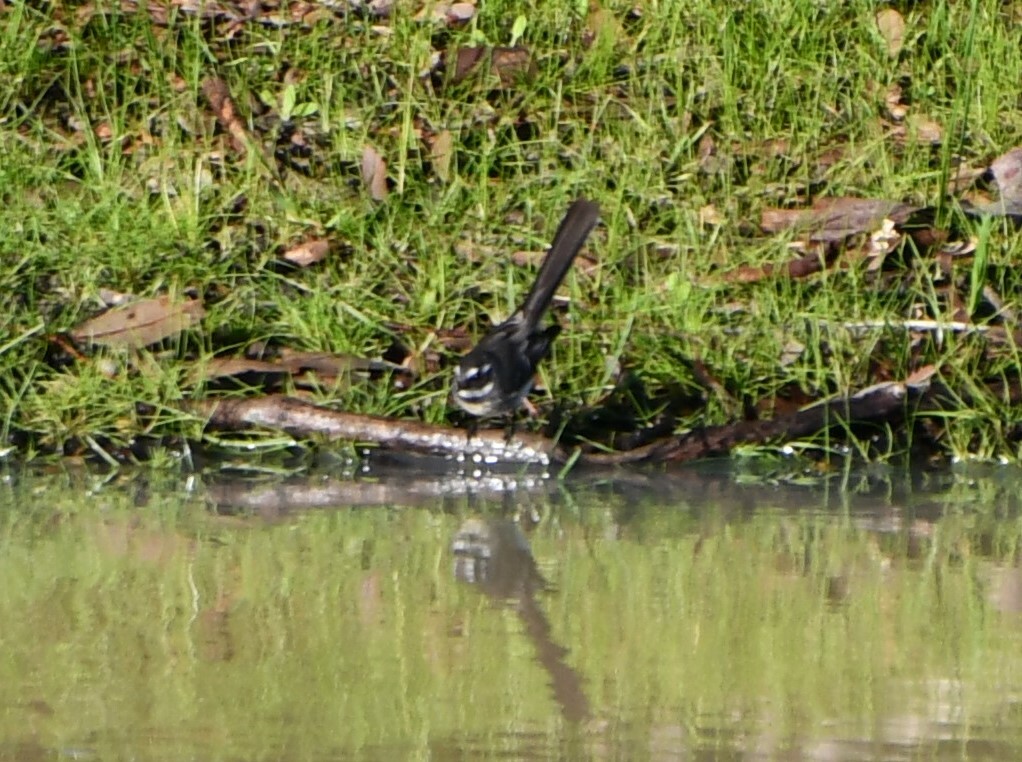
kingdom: Animalia
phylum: Chordata
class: Aves
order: Passeriformes
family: Rhipiduridae
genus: Rhipidura
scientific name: Rhipidura albiscapa
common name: Grey fantail
